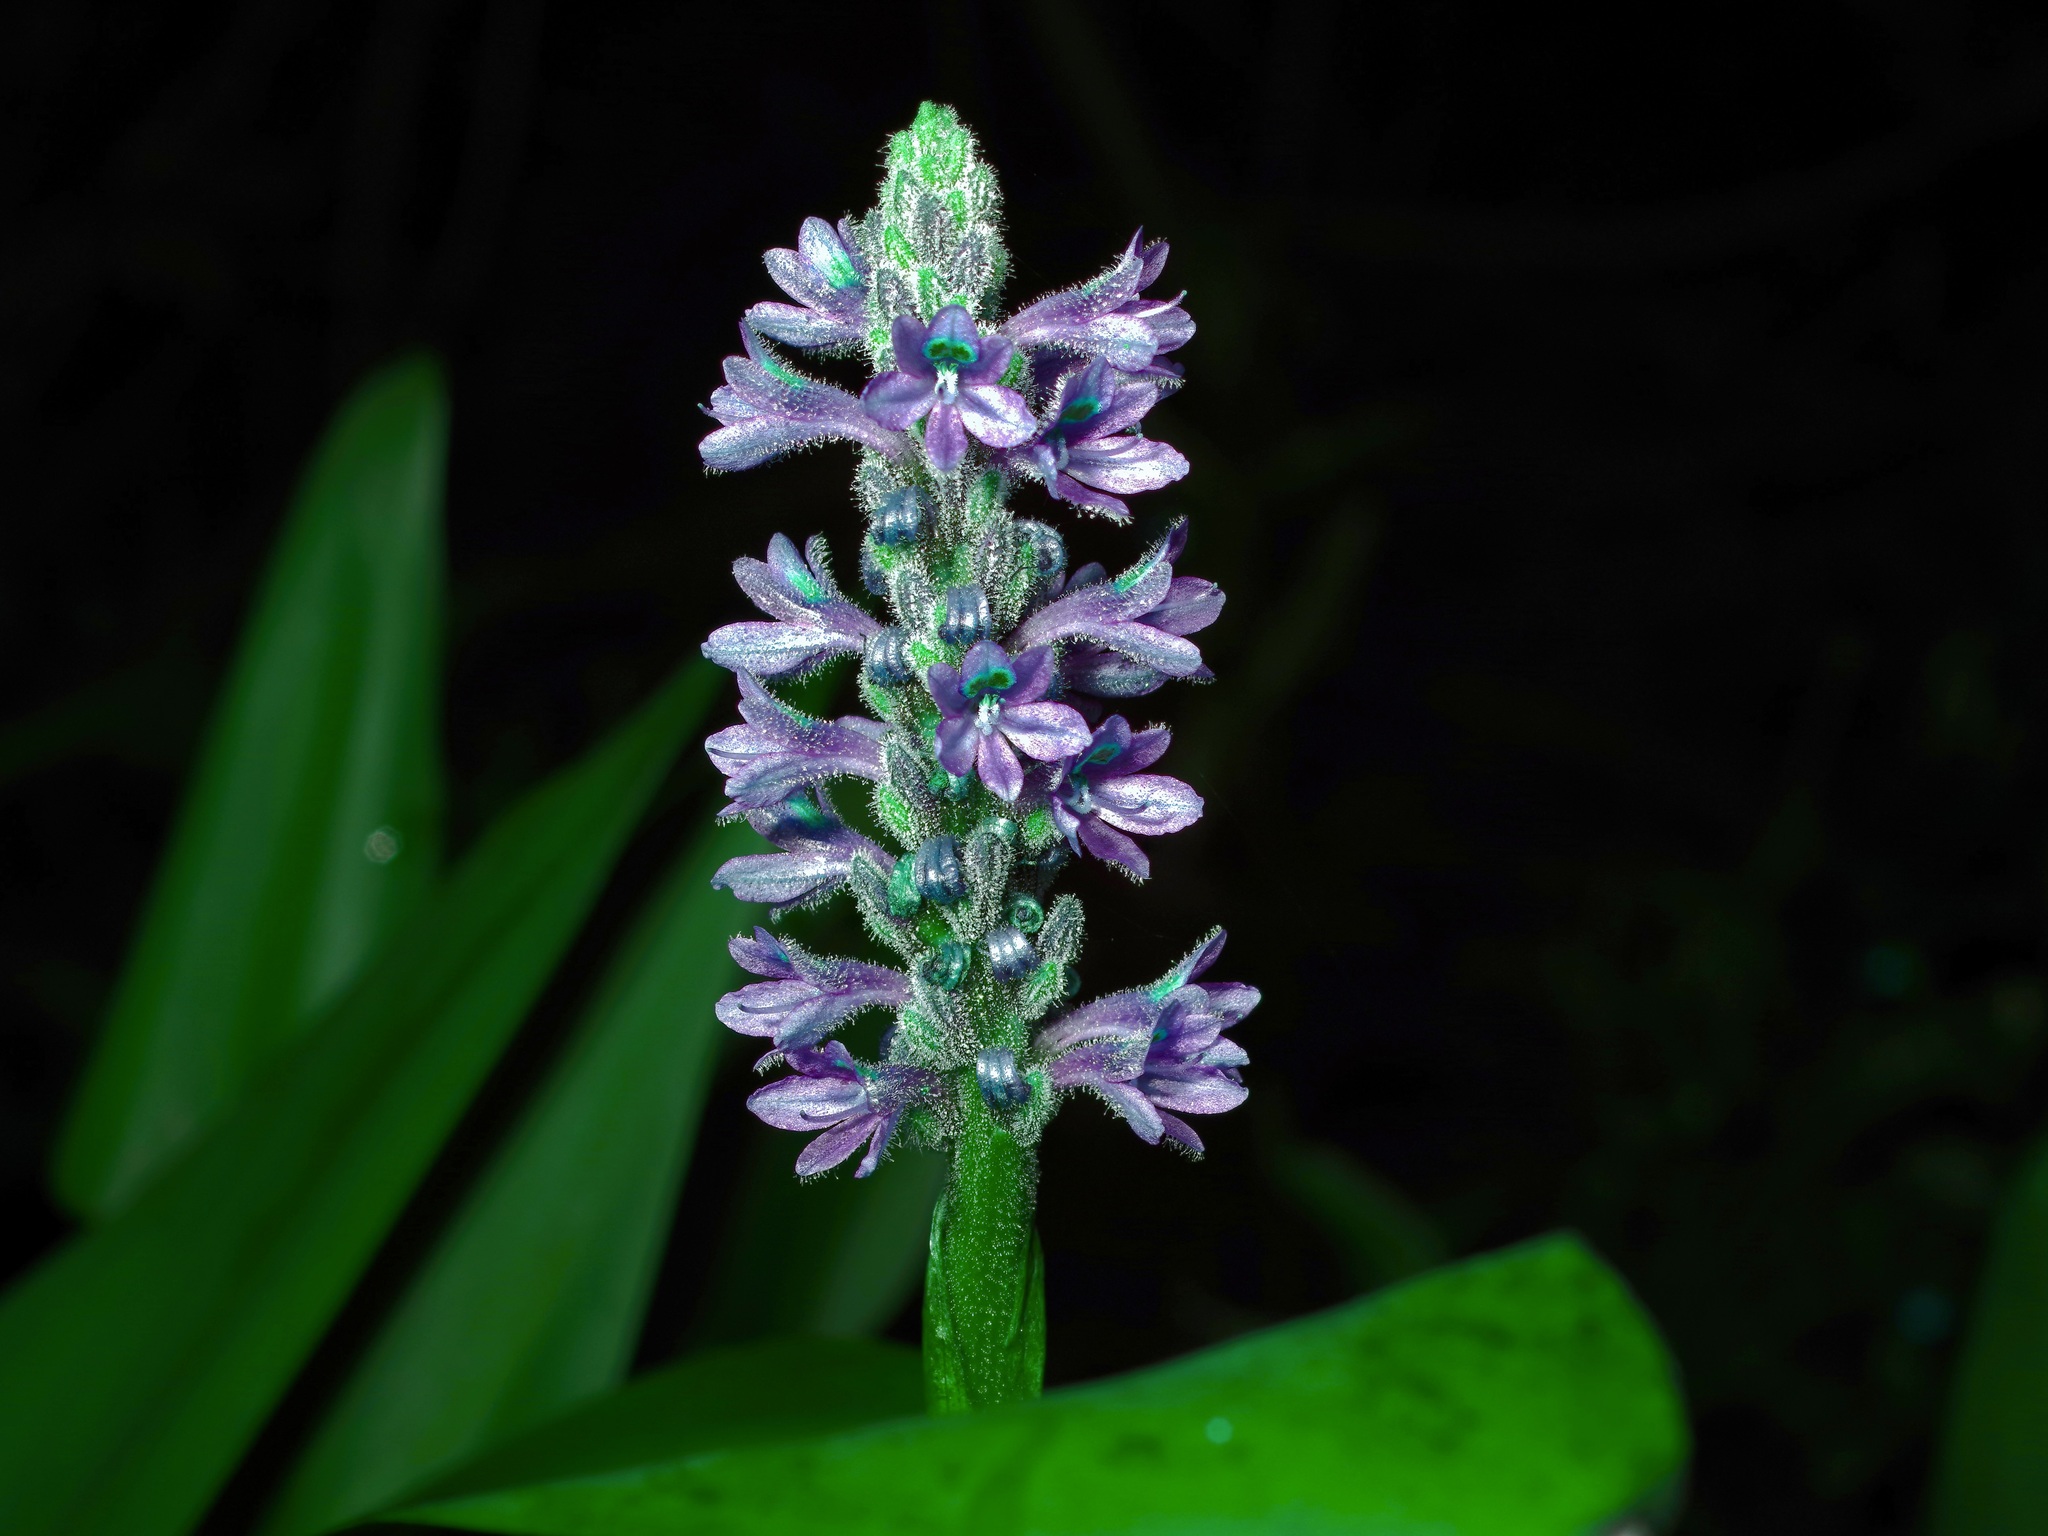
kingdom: Plantae
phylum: Tracheophyta
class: Liliopsida
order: Commelinales
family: Pontederiaceae
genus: Pontederia
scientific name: Pontederia cordata
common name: Pickerelweed
